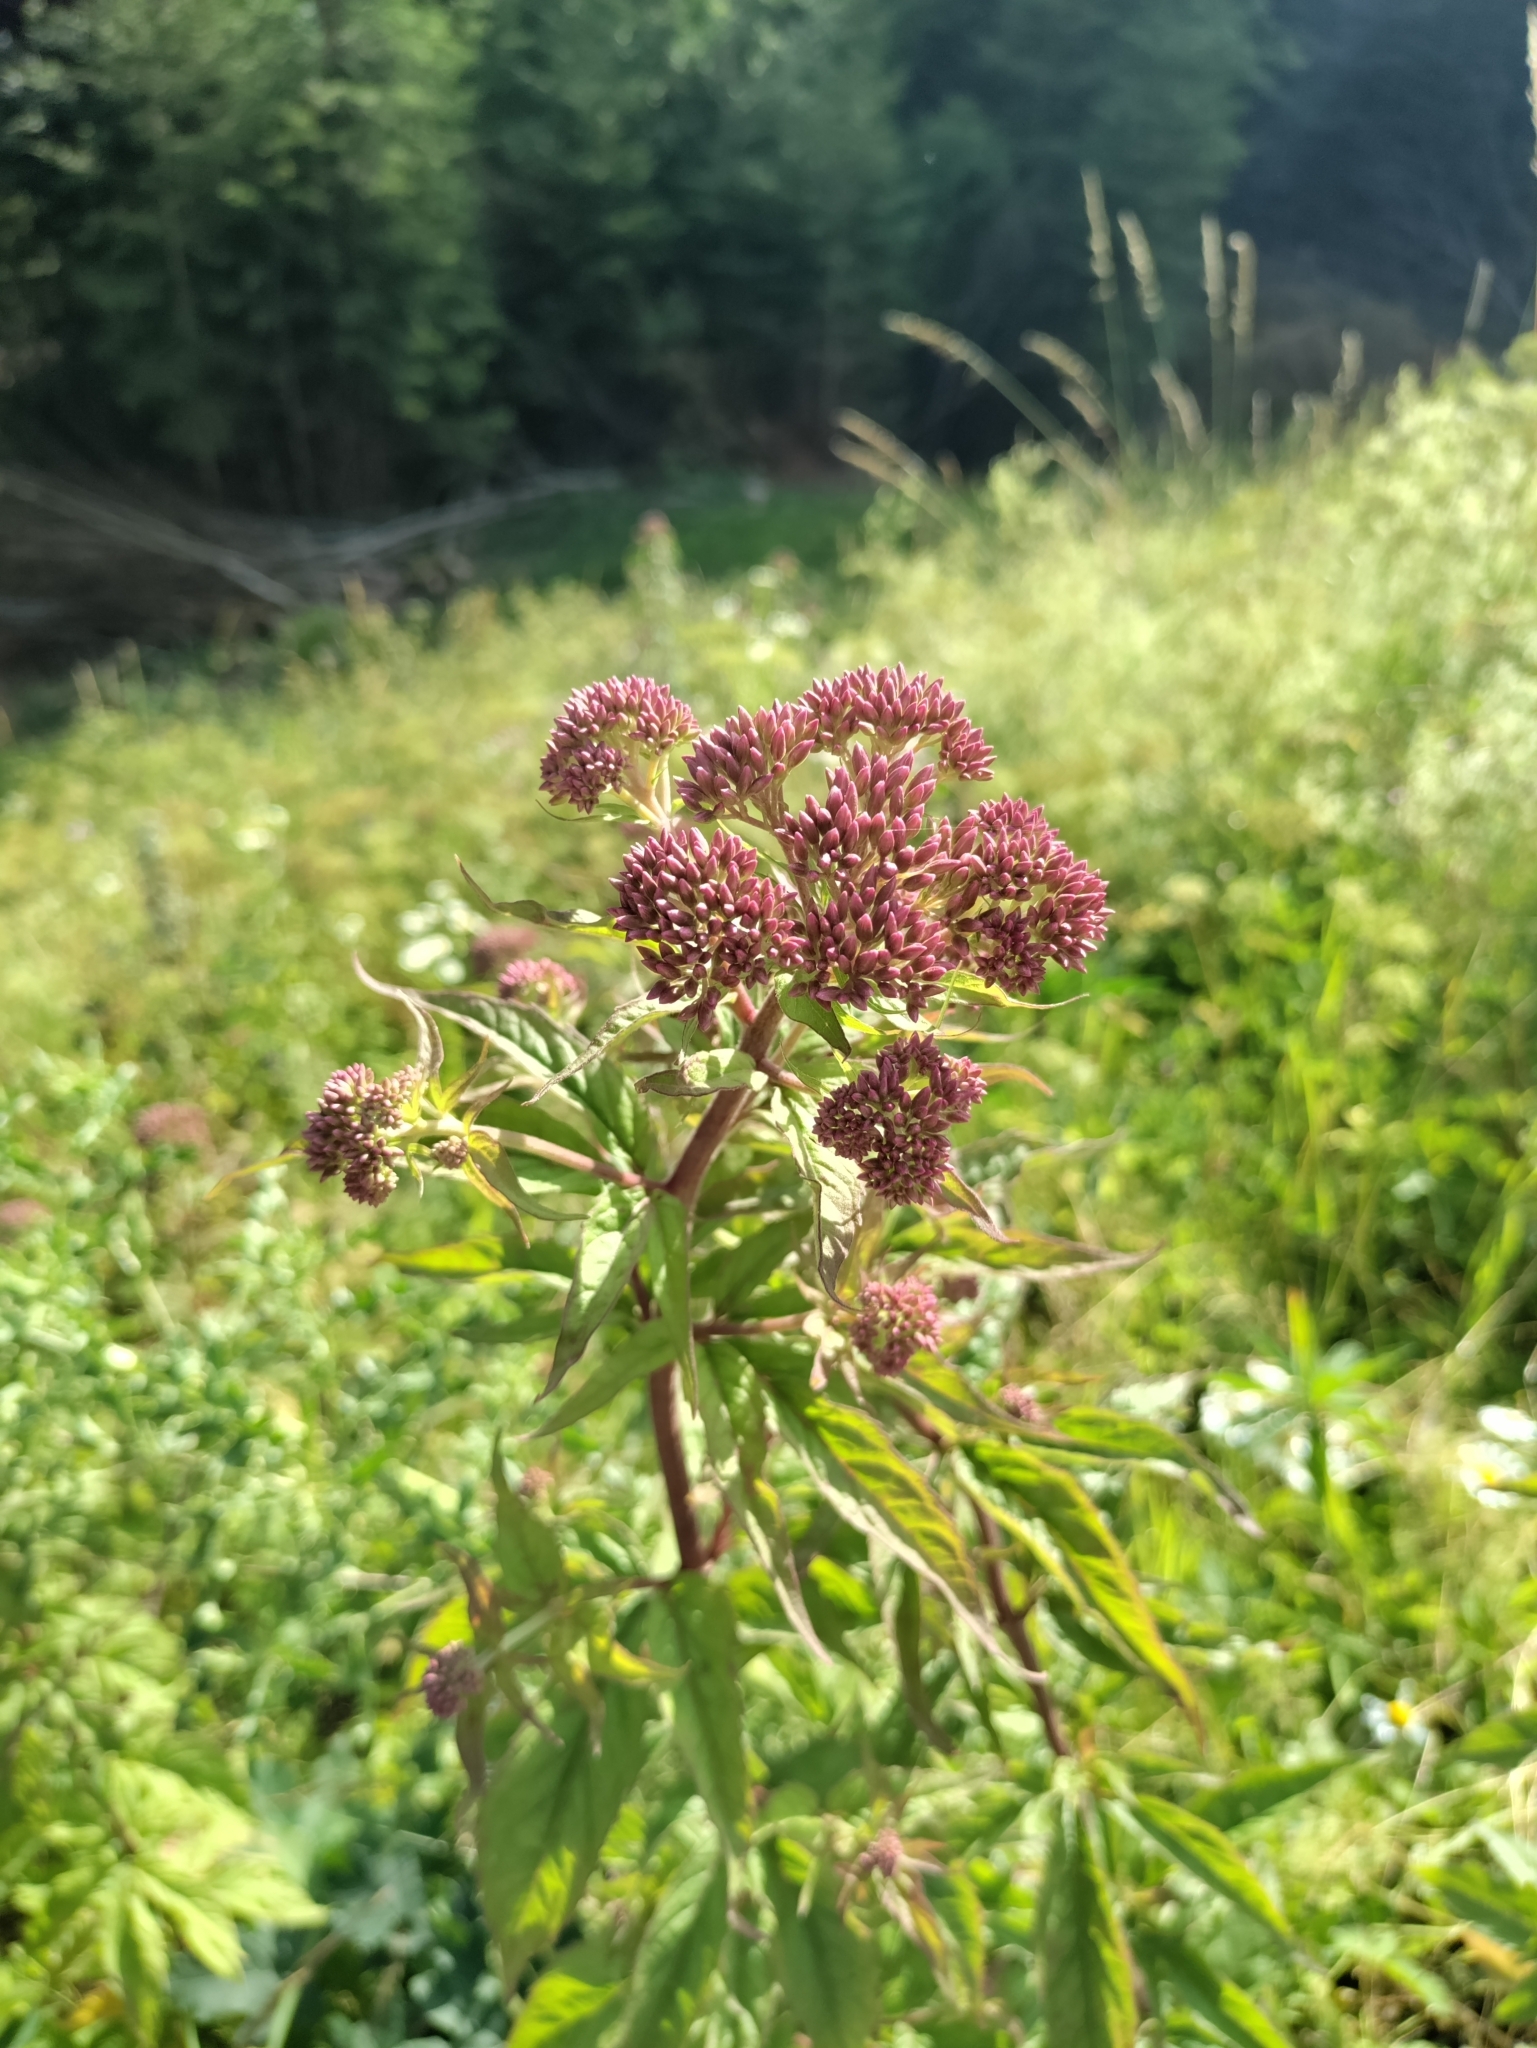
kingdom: Plantae
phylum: Tracheophyta
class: Magnoliopsida
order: Asterales
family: Asteraceae
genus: Eupatorium
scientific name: Eupatorium cannabinum
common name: Hemp-agrimony
